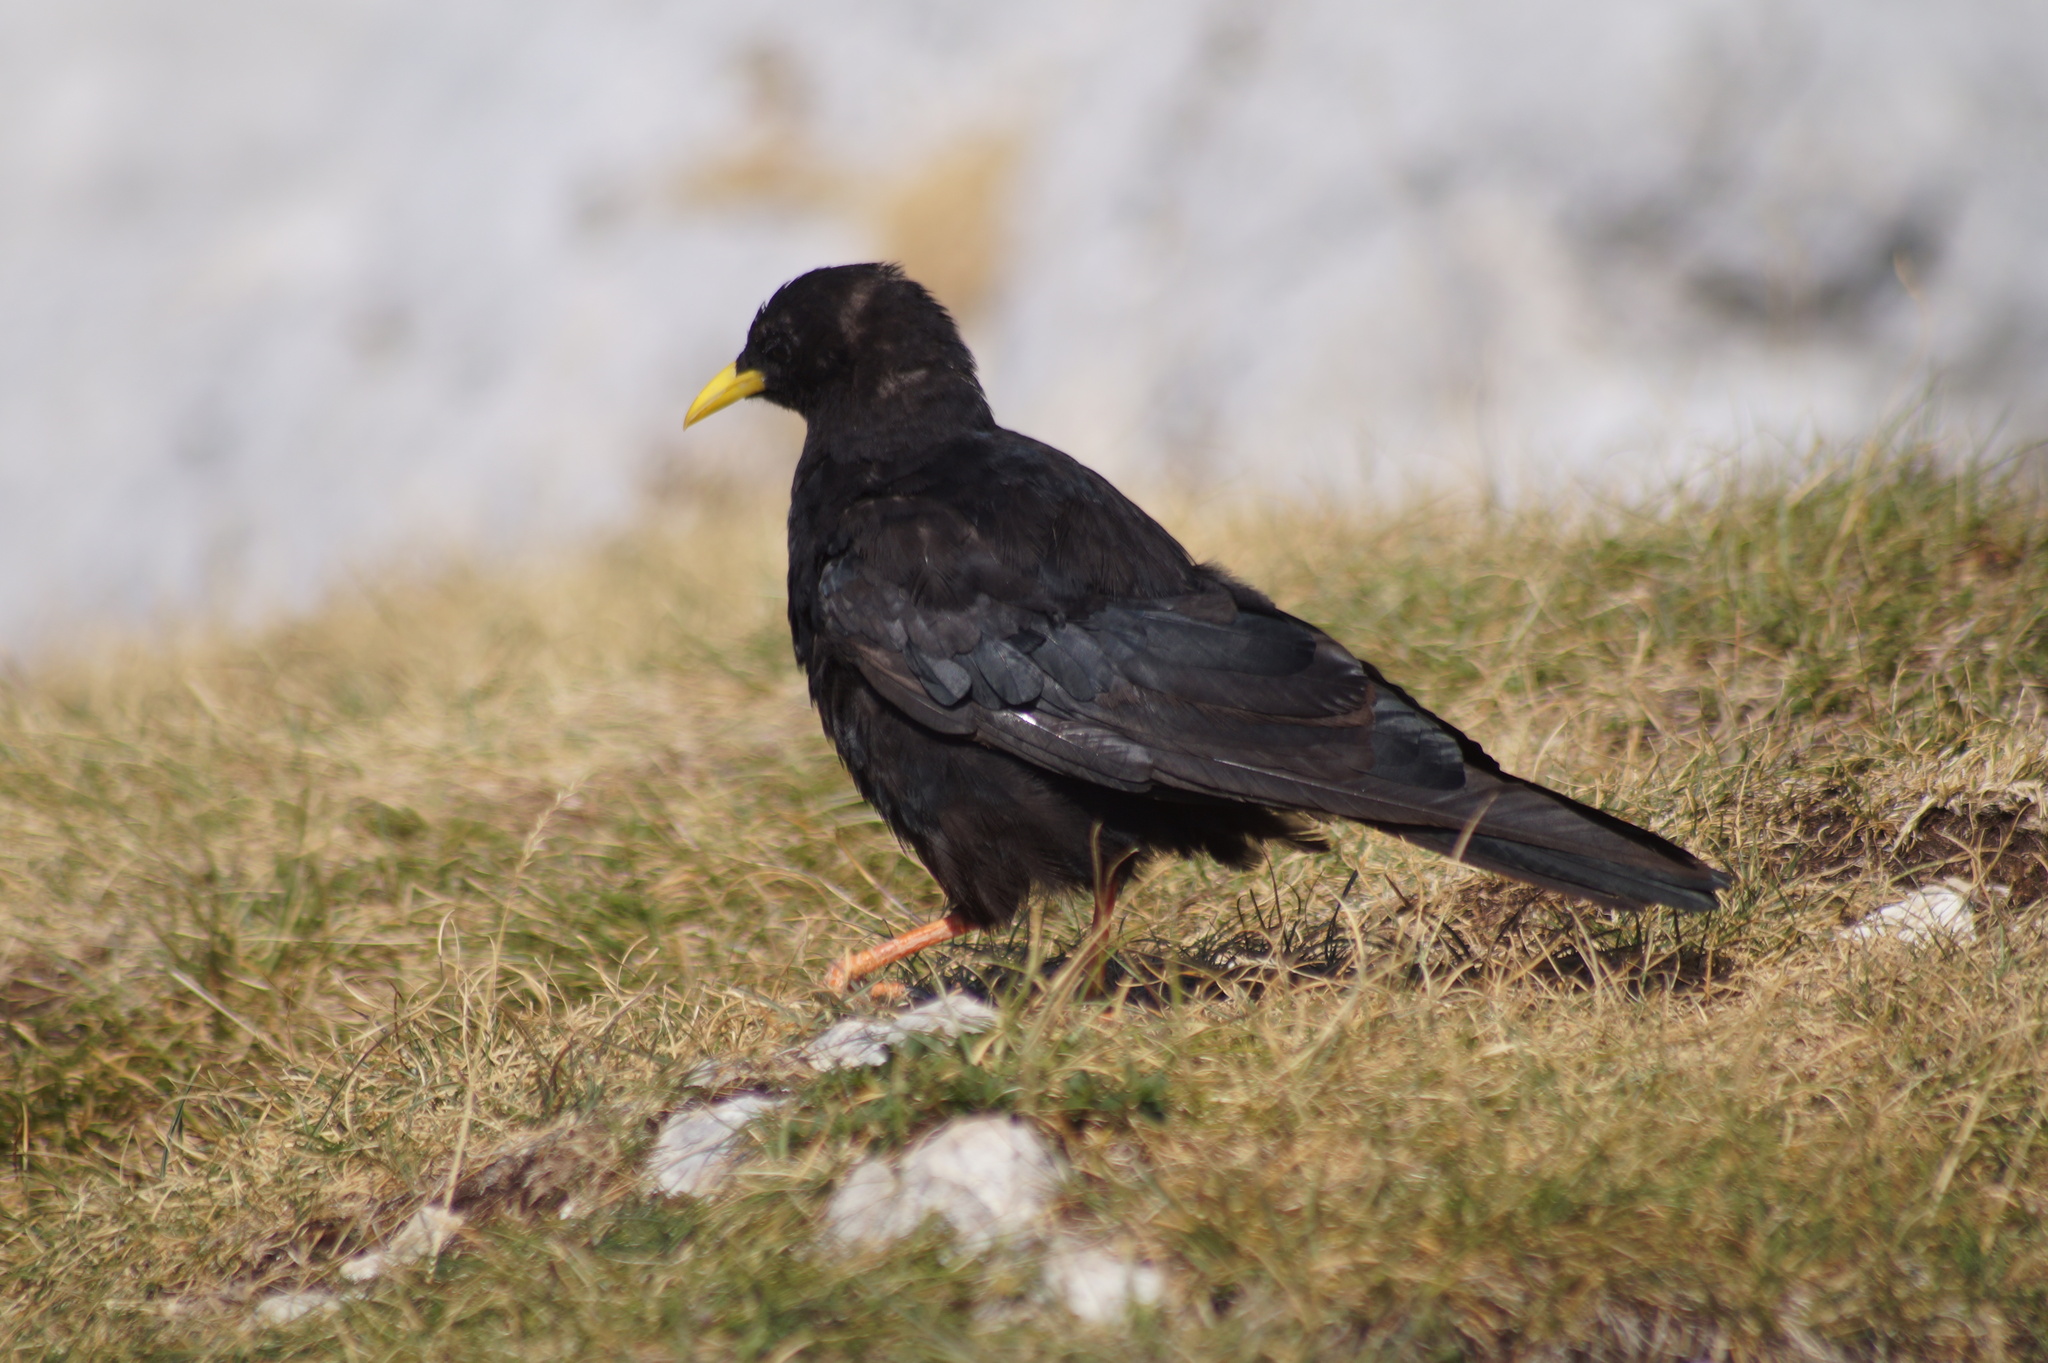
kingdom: Animalia
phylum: Chordata
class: Aves
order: Passeriformes
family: Corvidae
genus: Pyrrhocorax
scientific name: Pyrrhocorax graculus
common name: Alpine chough
